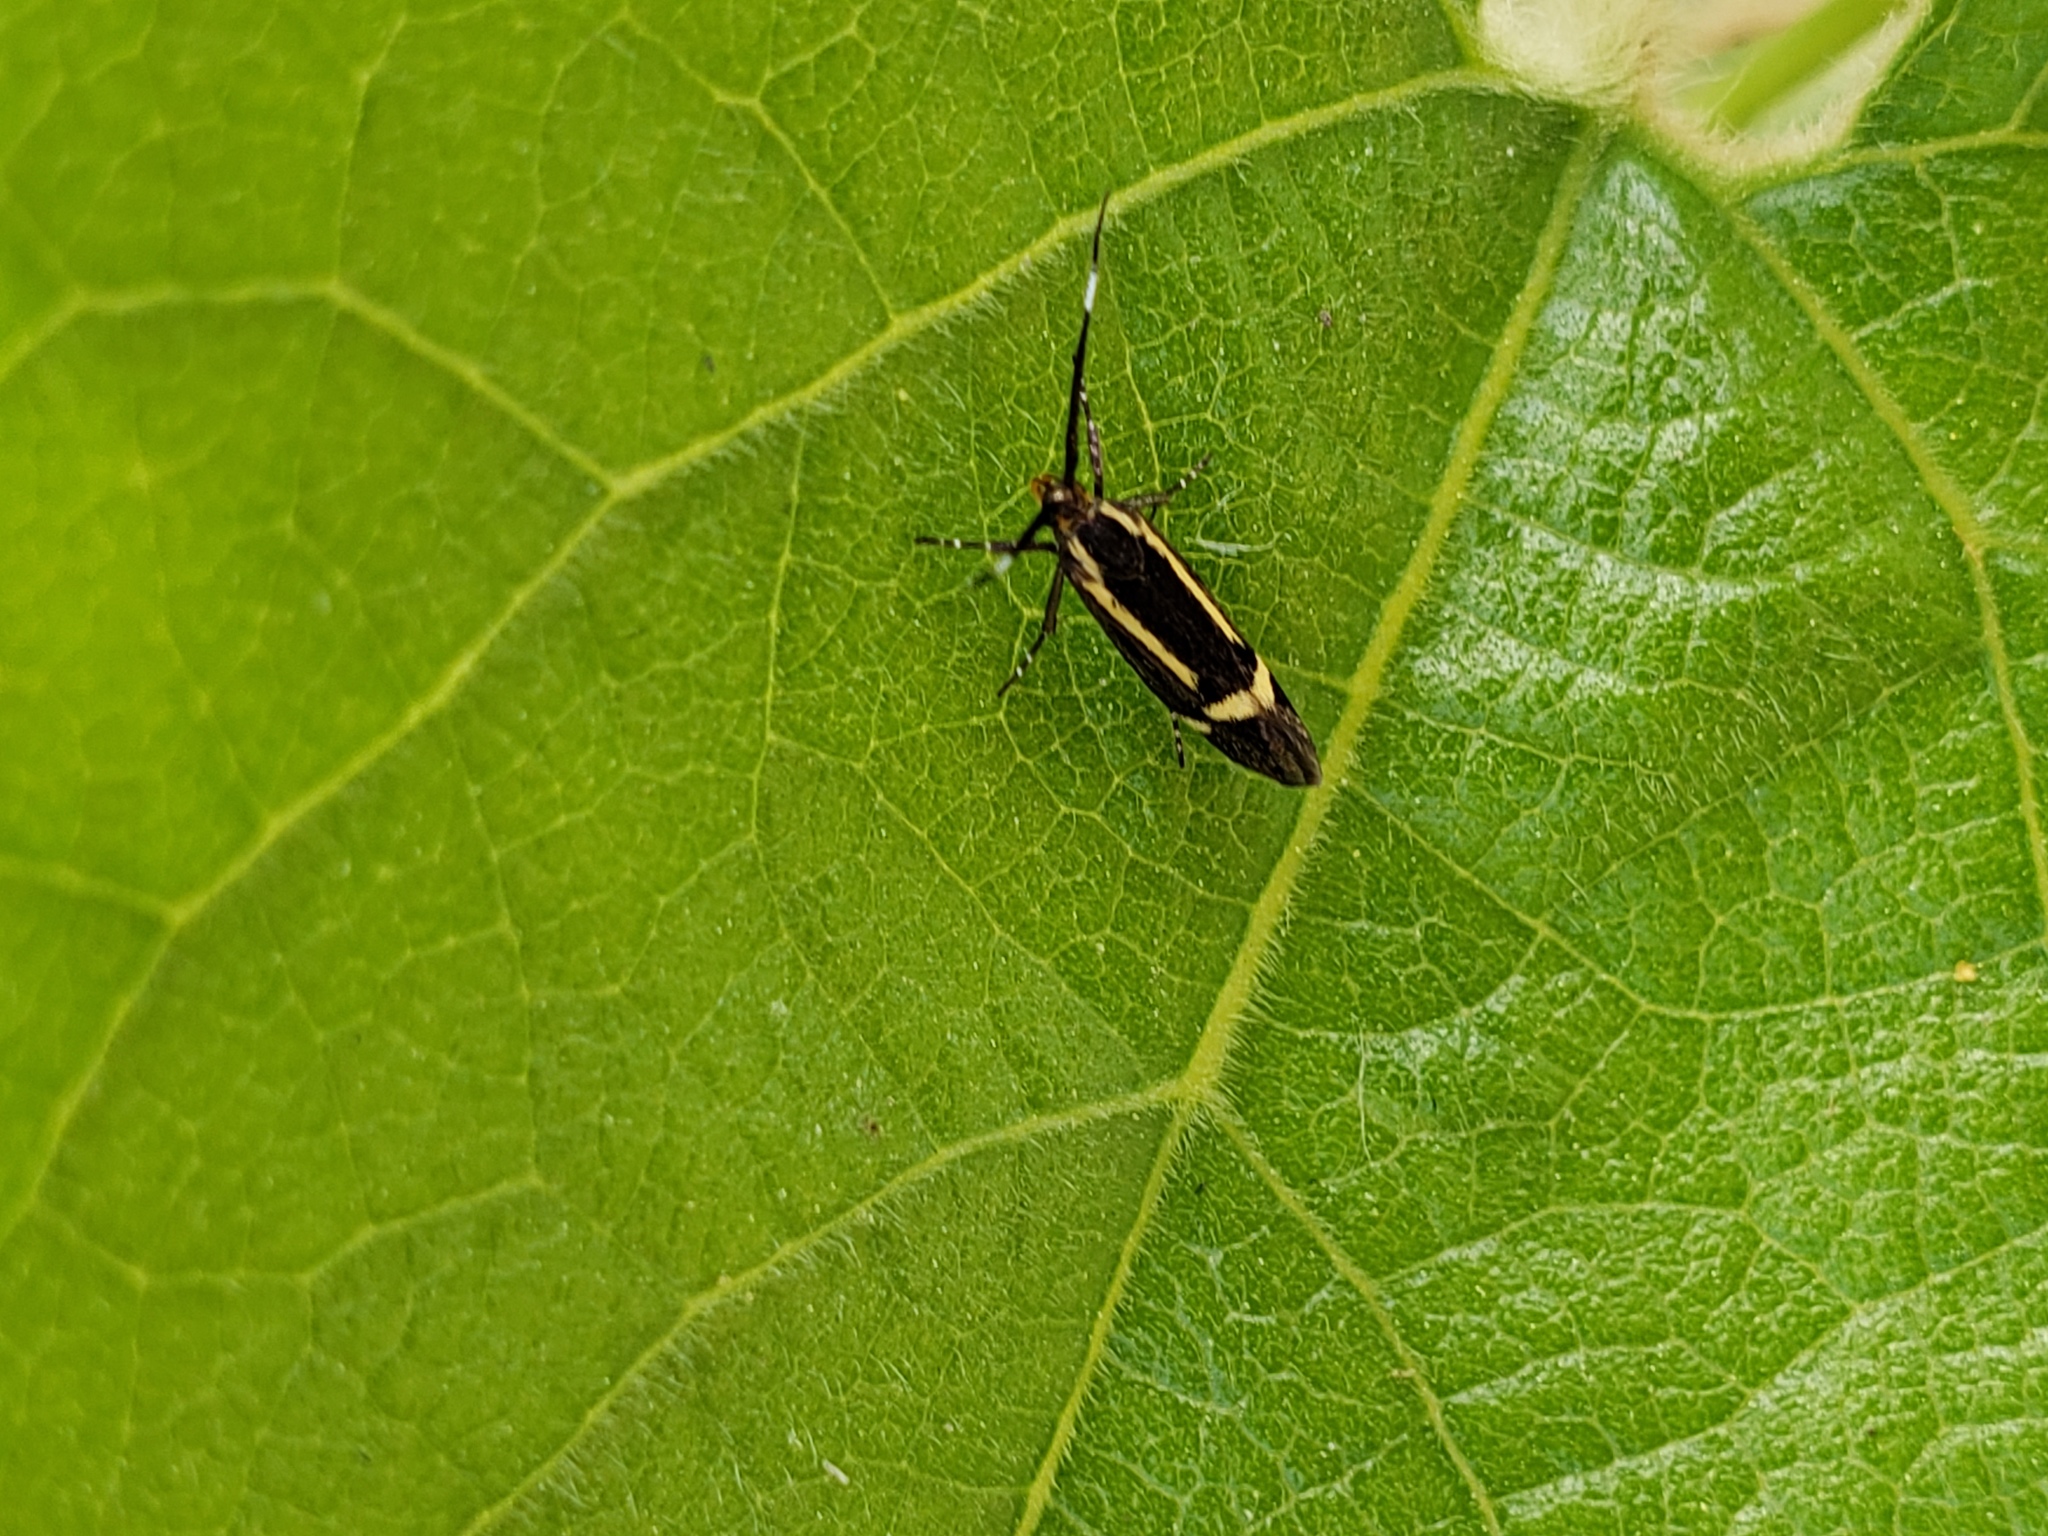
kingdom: Animalia
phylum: Arthropoda
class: Insecta
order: Lepidoptera
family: Oecophoridae
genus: Dafa
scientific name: Dafa Esperia sulphurella
